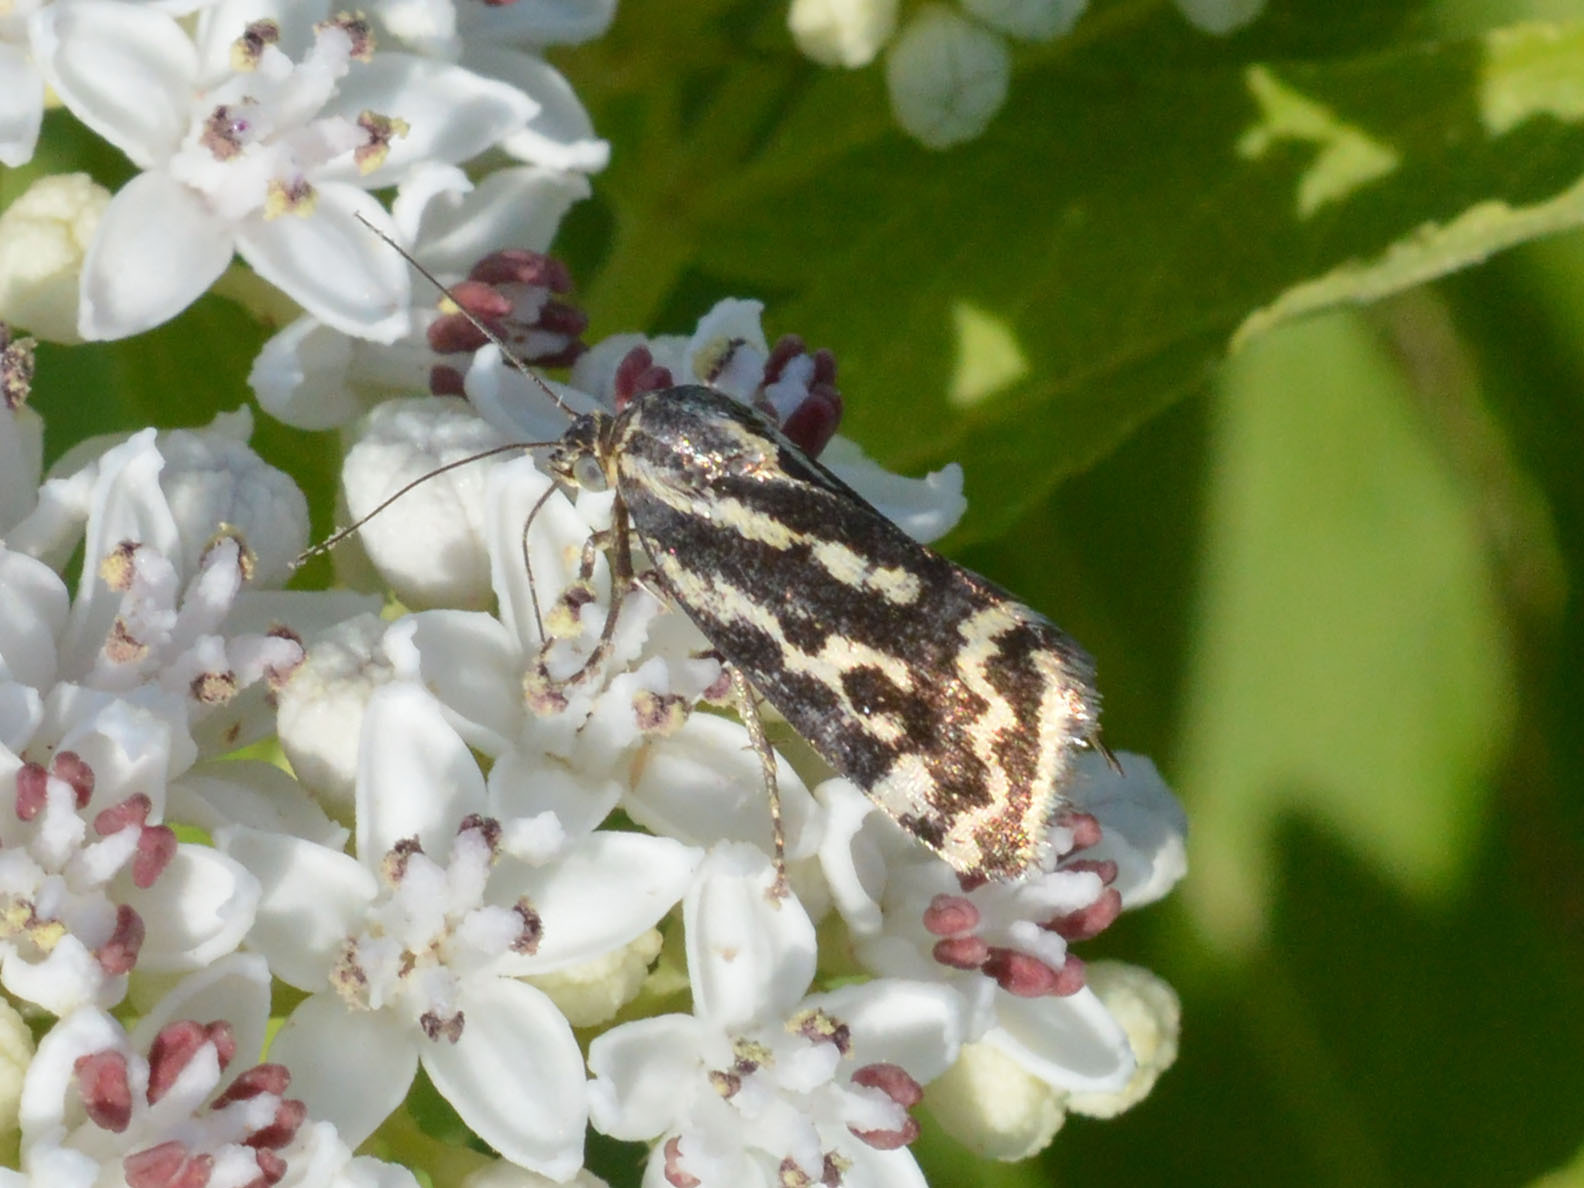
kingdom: Animalia
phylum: Arthropoda
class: Insecta
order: Lepidoptera
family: Noctuidae
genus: Acontia
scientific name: Acontia trabealis
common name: Spotted sulphur
